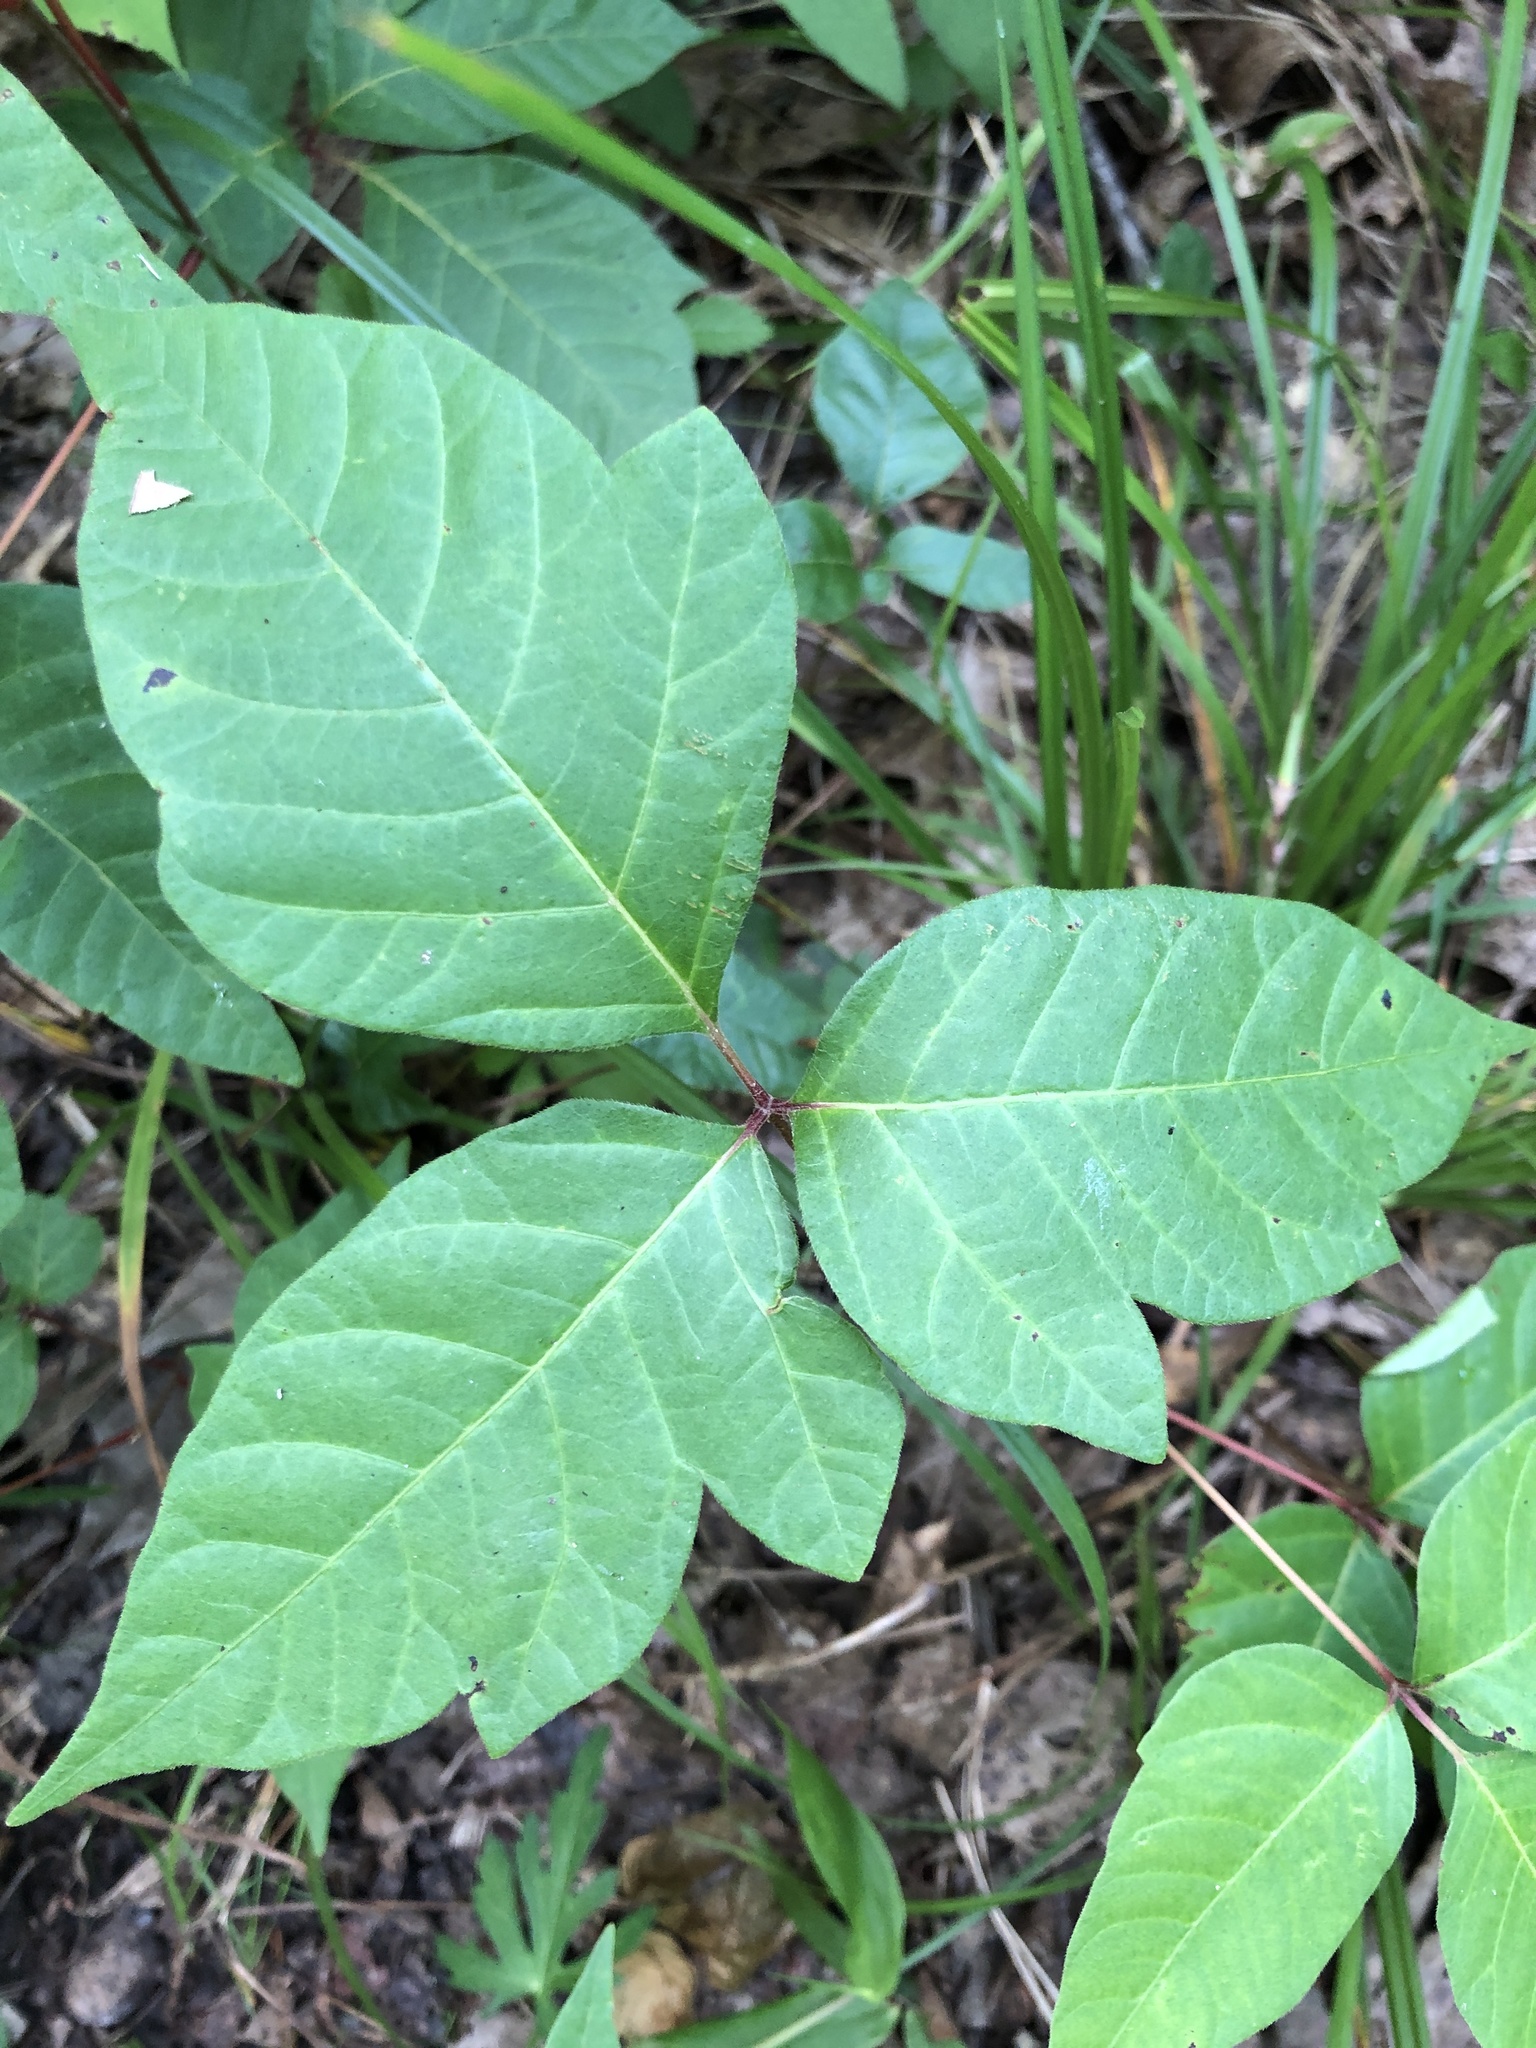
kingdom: Plantae
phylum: Tracheophyta
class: Magnoliopsida
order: Sapindales
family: Anacardiaceae
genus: Toxicodendron
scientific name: Toxicodendron radicans
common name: Poison ivy
